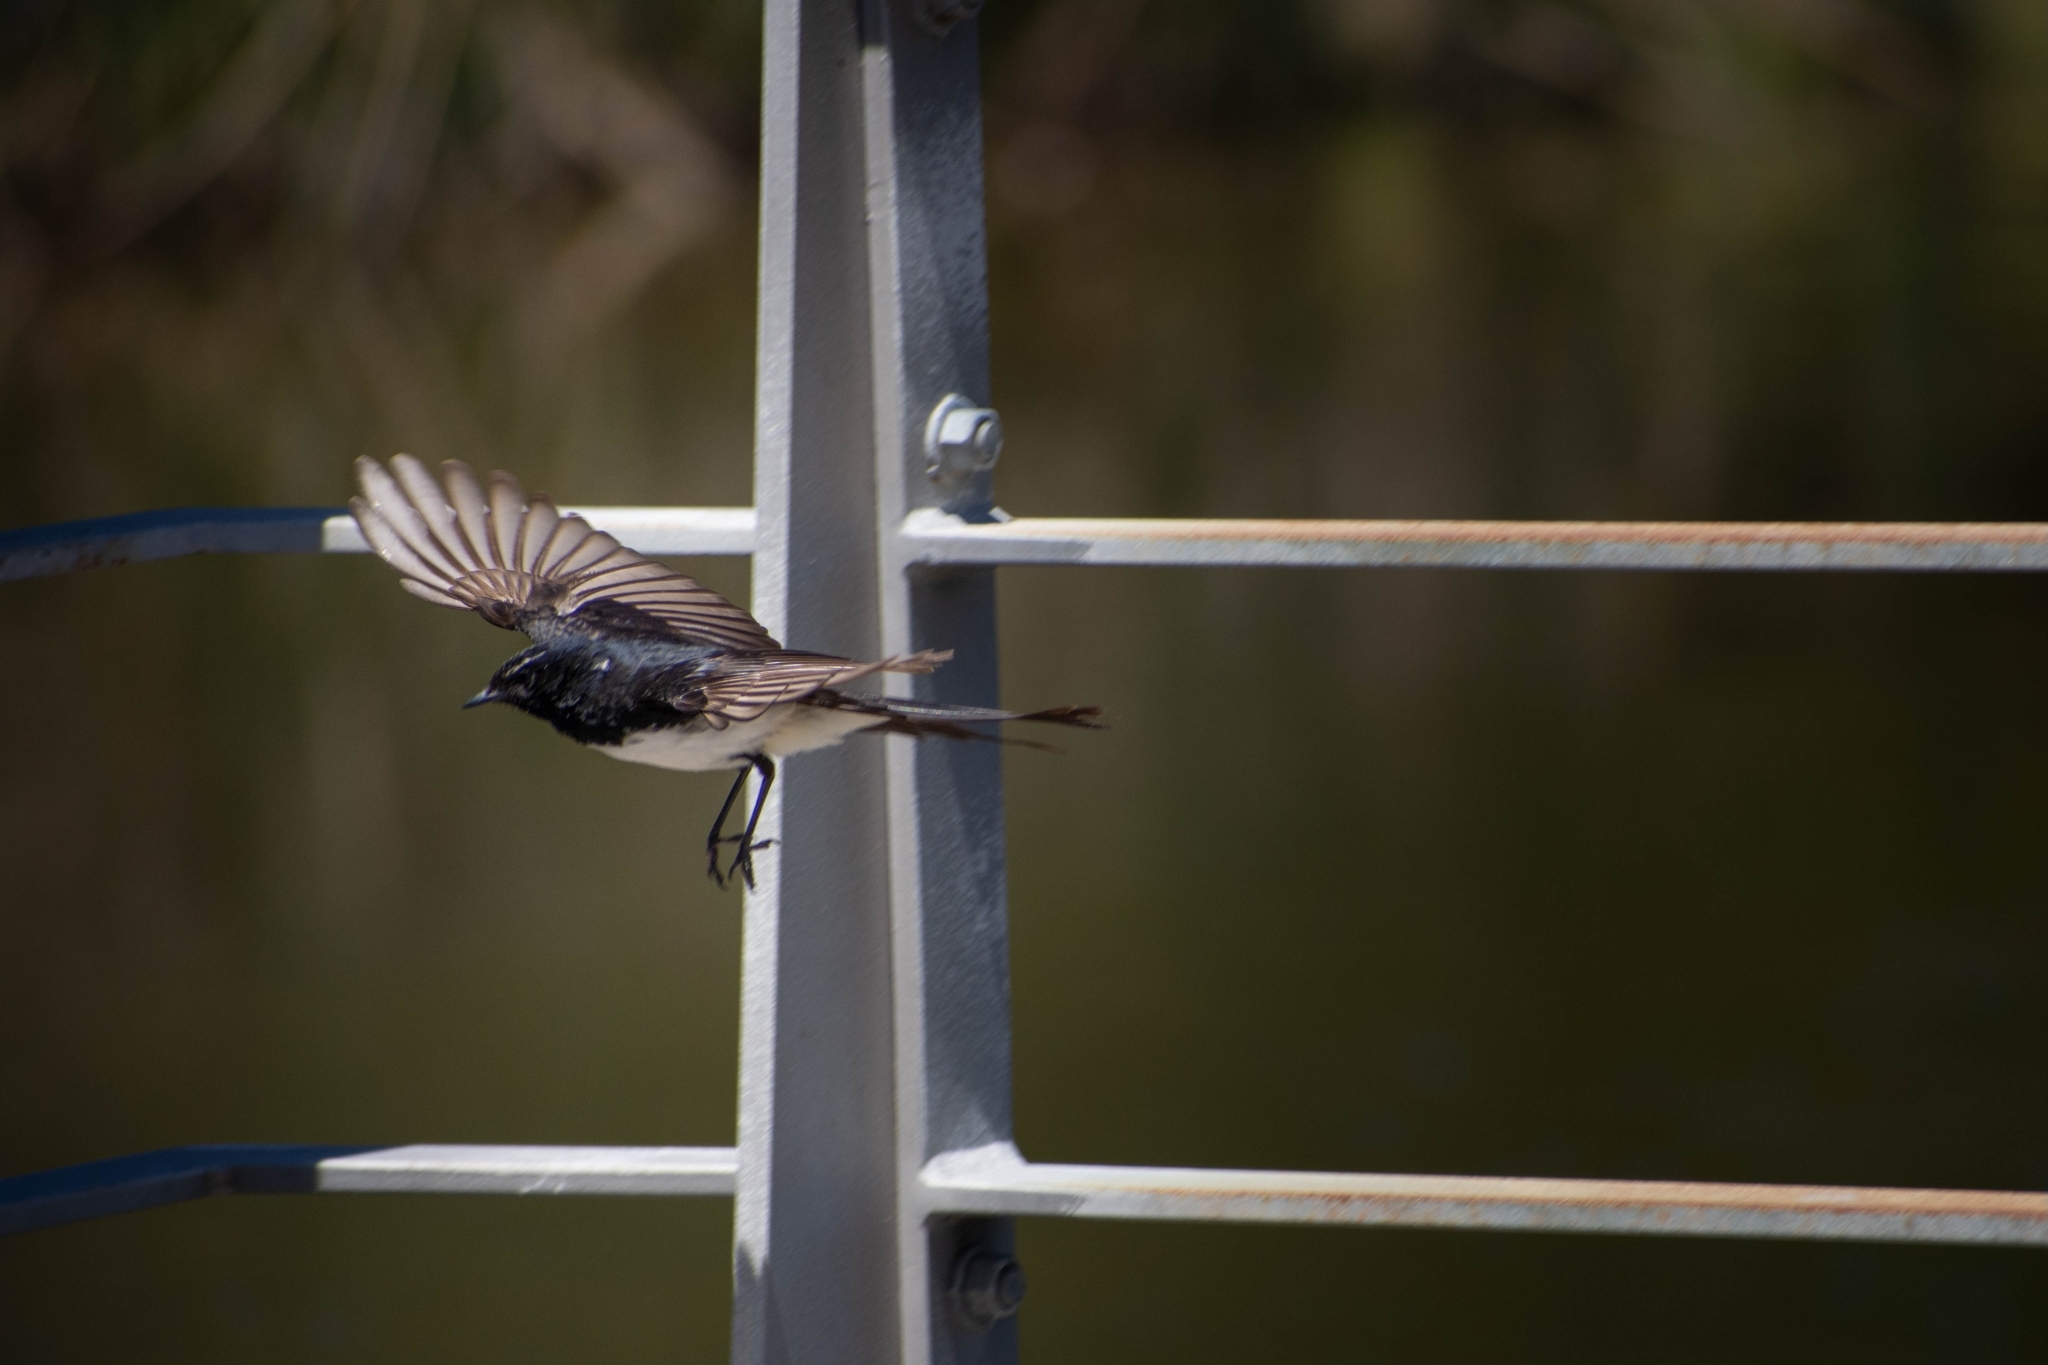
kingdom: Animalia
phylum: Chordata
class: Aves
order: Passeriformes
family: Rhipiduridae
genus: Rhipidura
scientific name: Rhipidura leucophrys
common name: Willie wagtail
